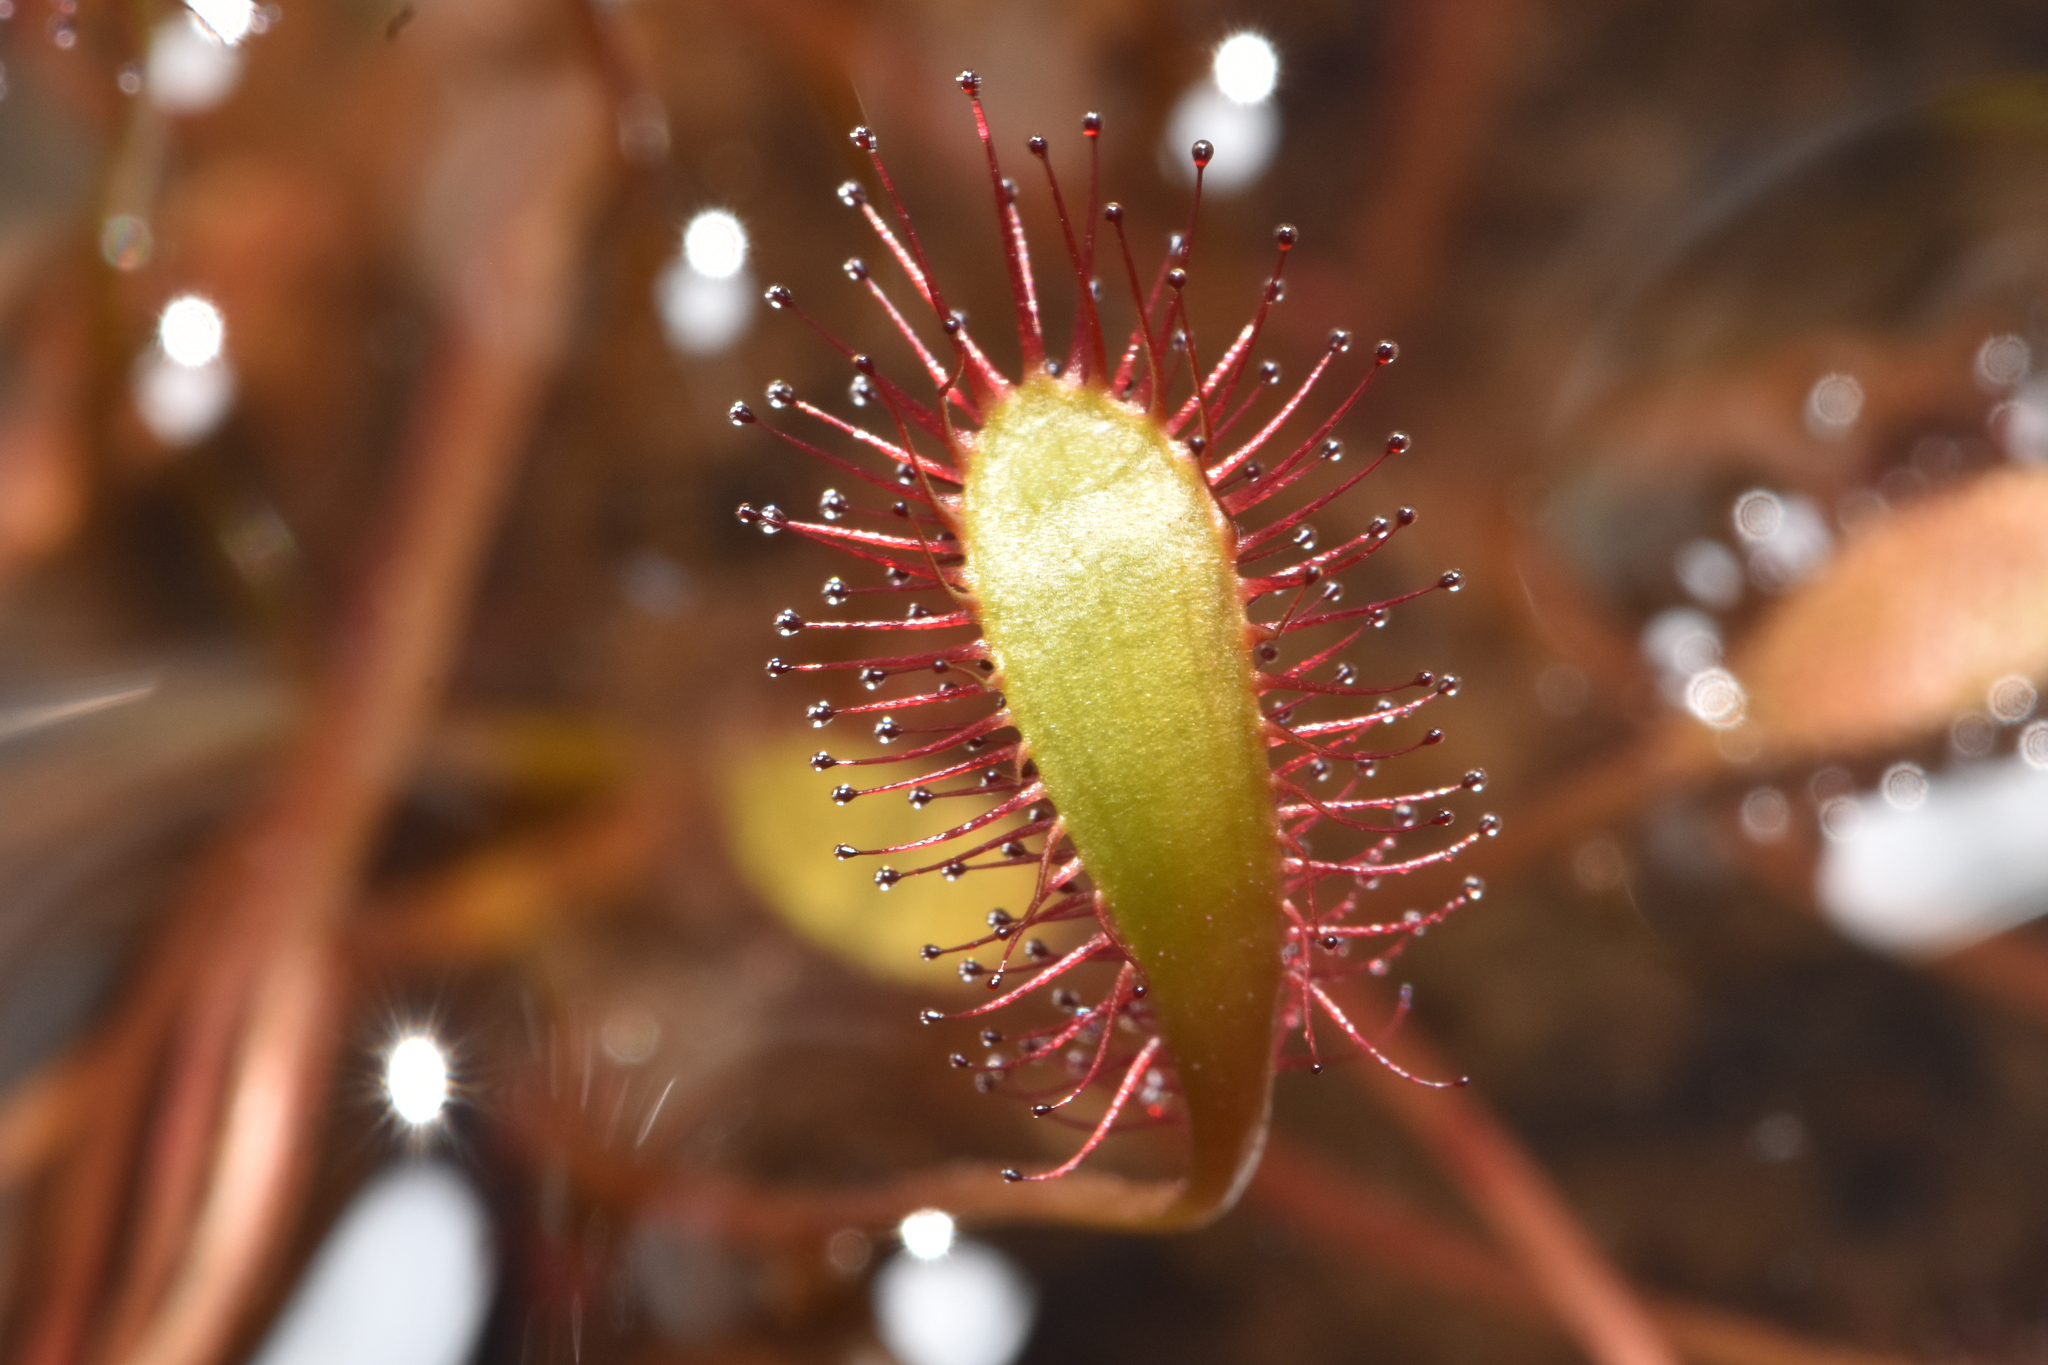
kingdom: Plantae
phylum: Tracheophyta
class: Magnoliopsida
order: Caryophyllales
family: Droseraceae
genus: Drosera
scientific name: Drosera anglica
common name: Great sundew
